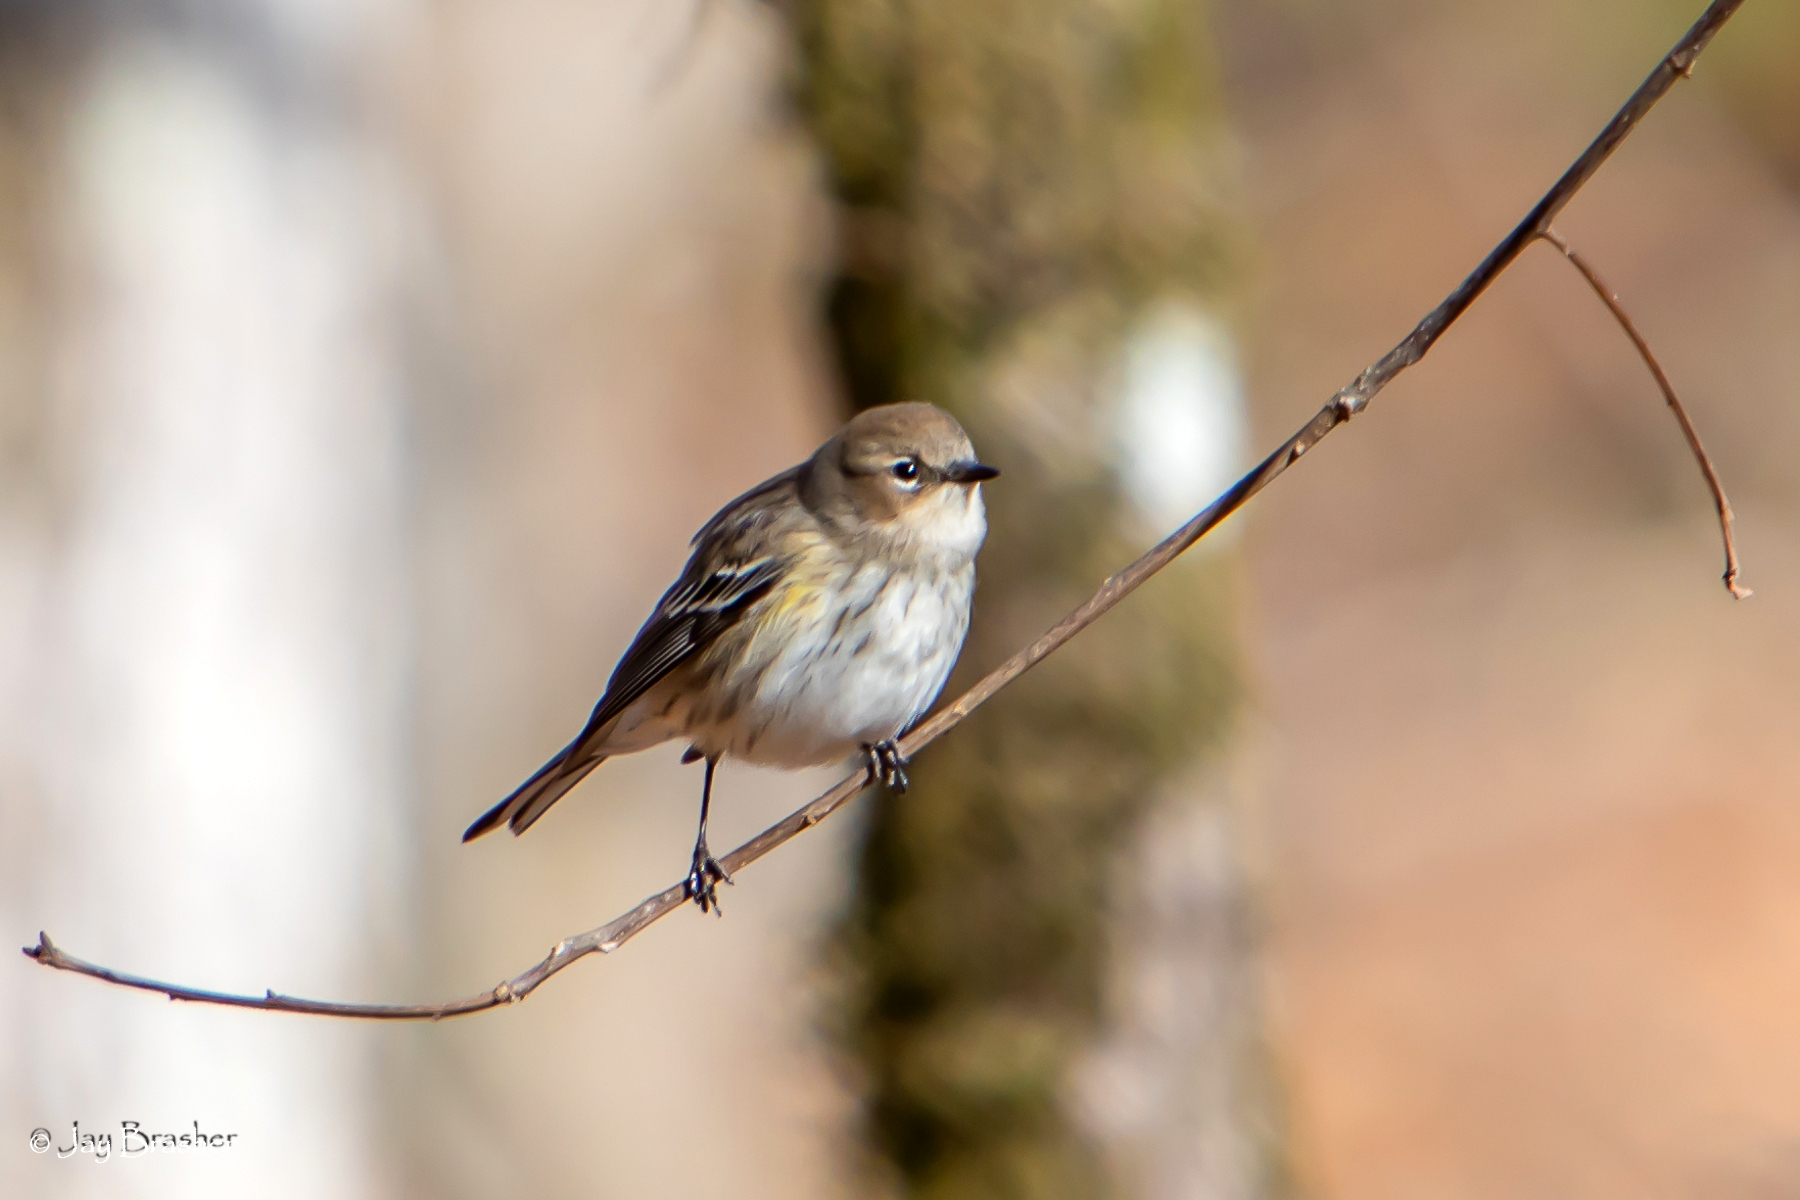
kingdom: Animalia
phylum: Chordata
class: Aves
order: Passeriformes
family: Parulidae
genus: Setophaga
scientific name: Setophaga coronata
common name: Myrtle warbler
